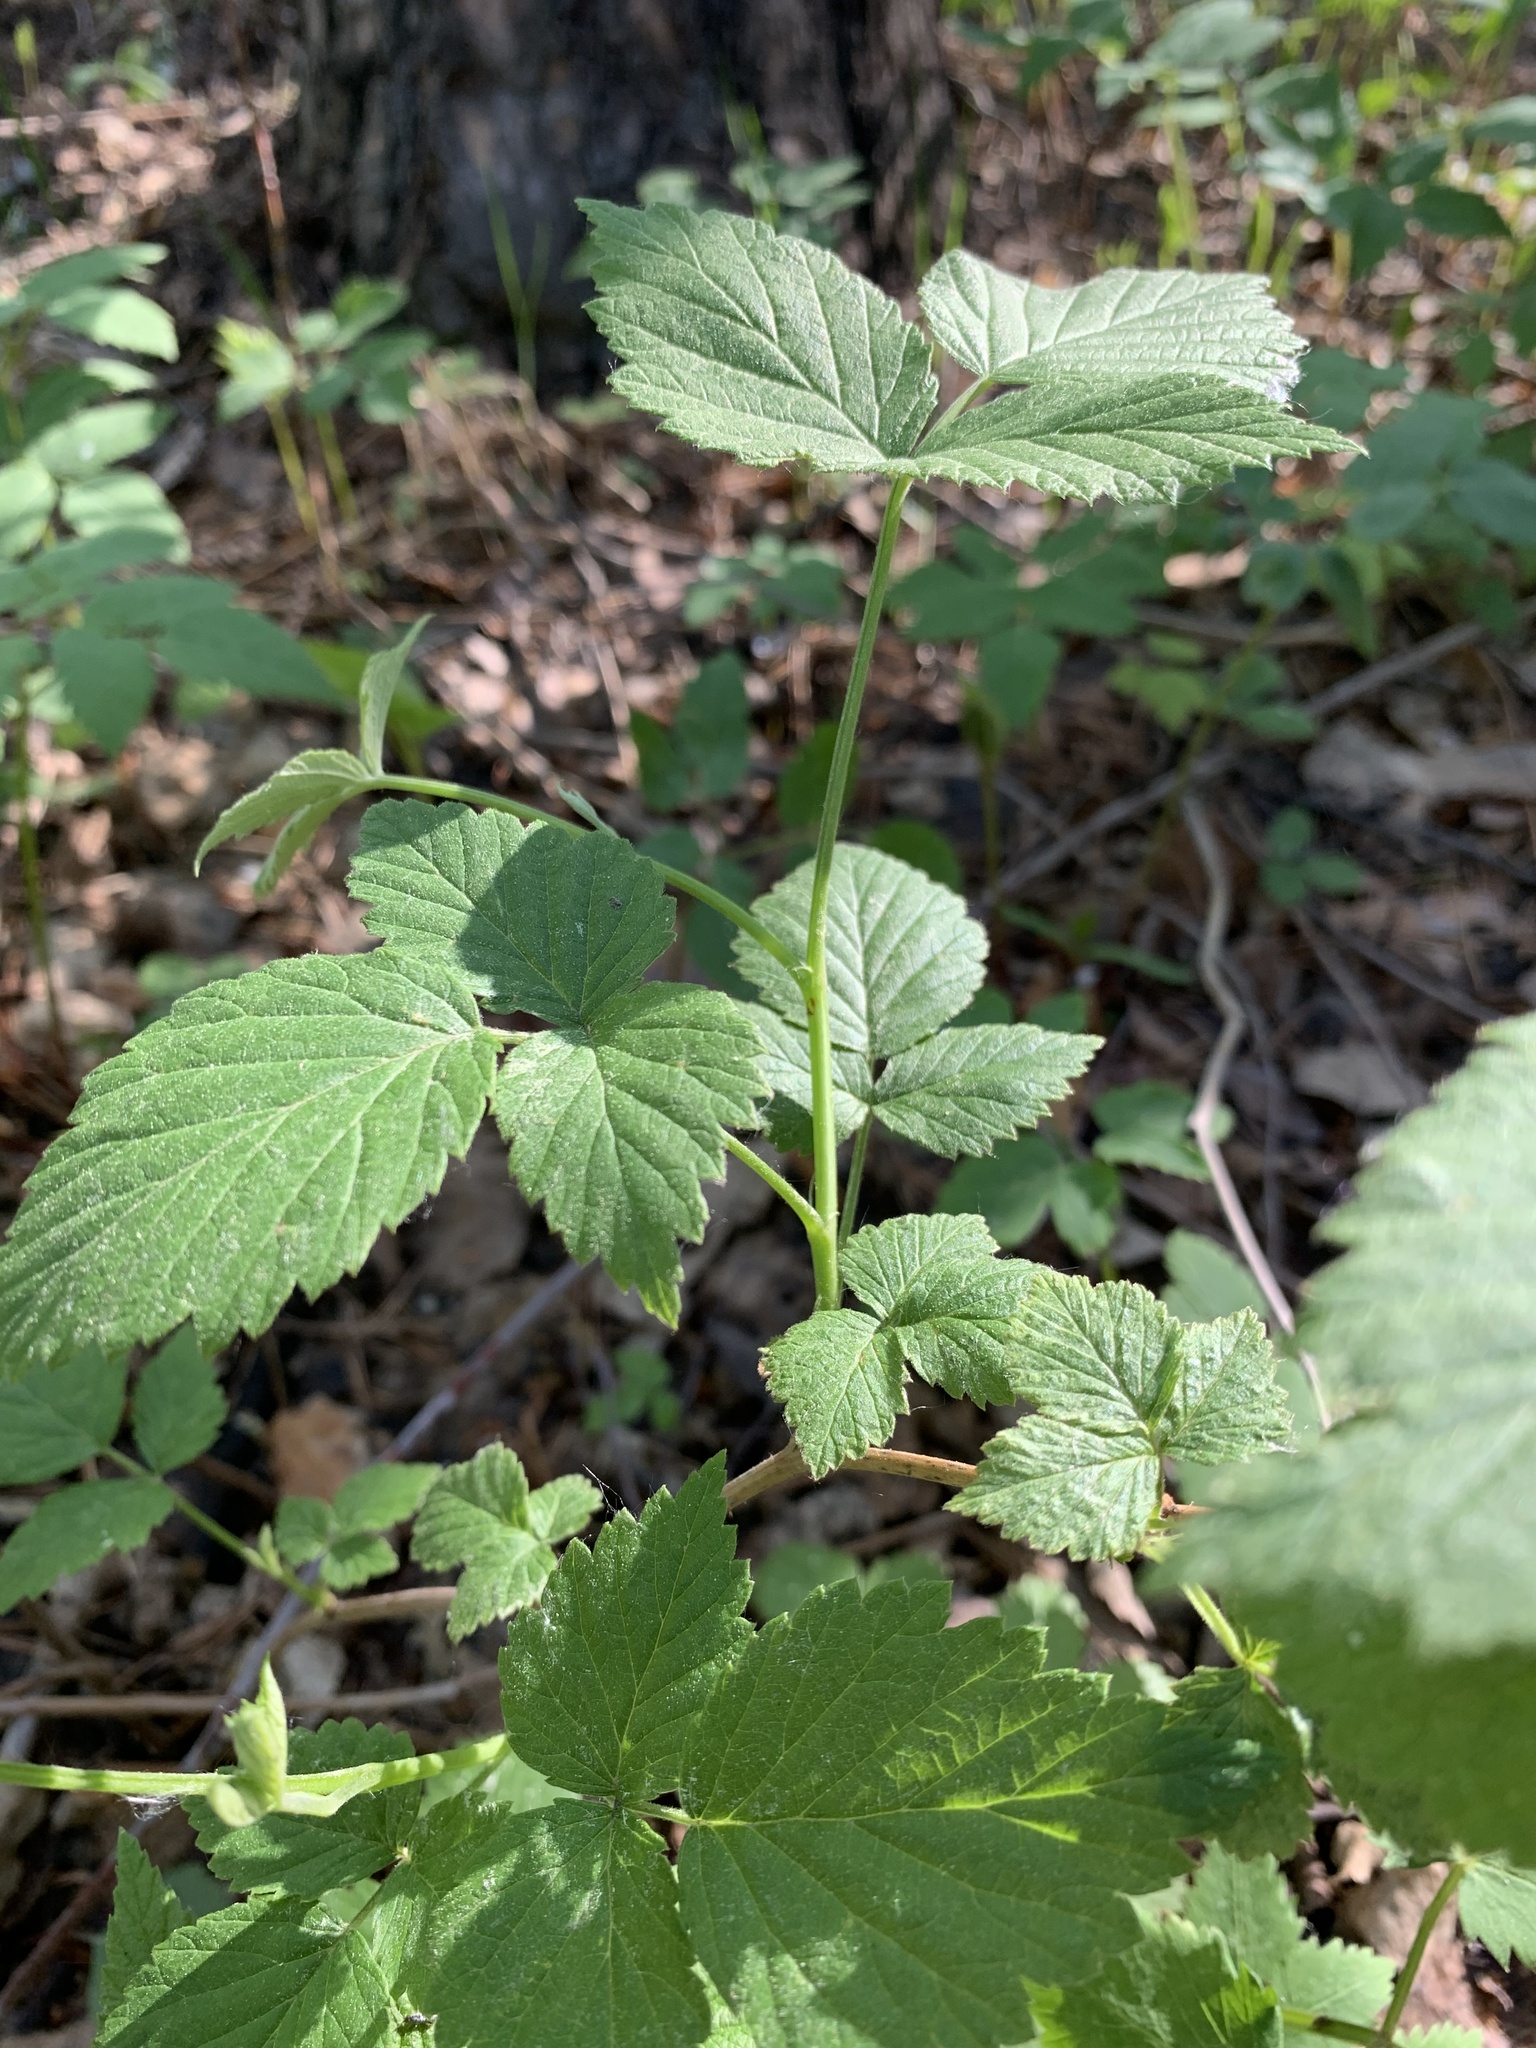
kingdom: Plantae
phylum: Tracheophyta
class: Magnoliopsida
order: Rosales
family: Rosaceae
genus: Rubus
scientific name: Rubus idaeus
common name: Raspberry
